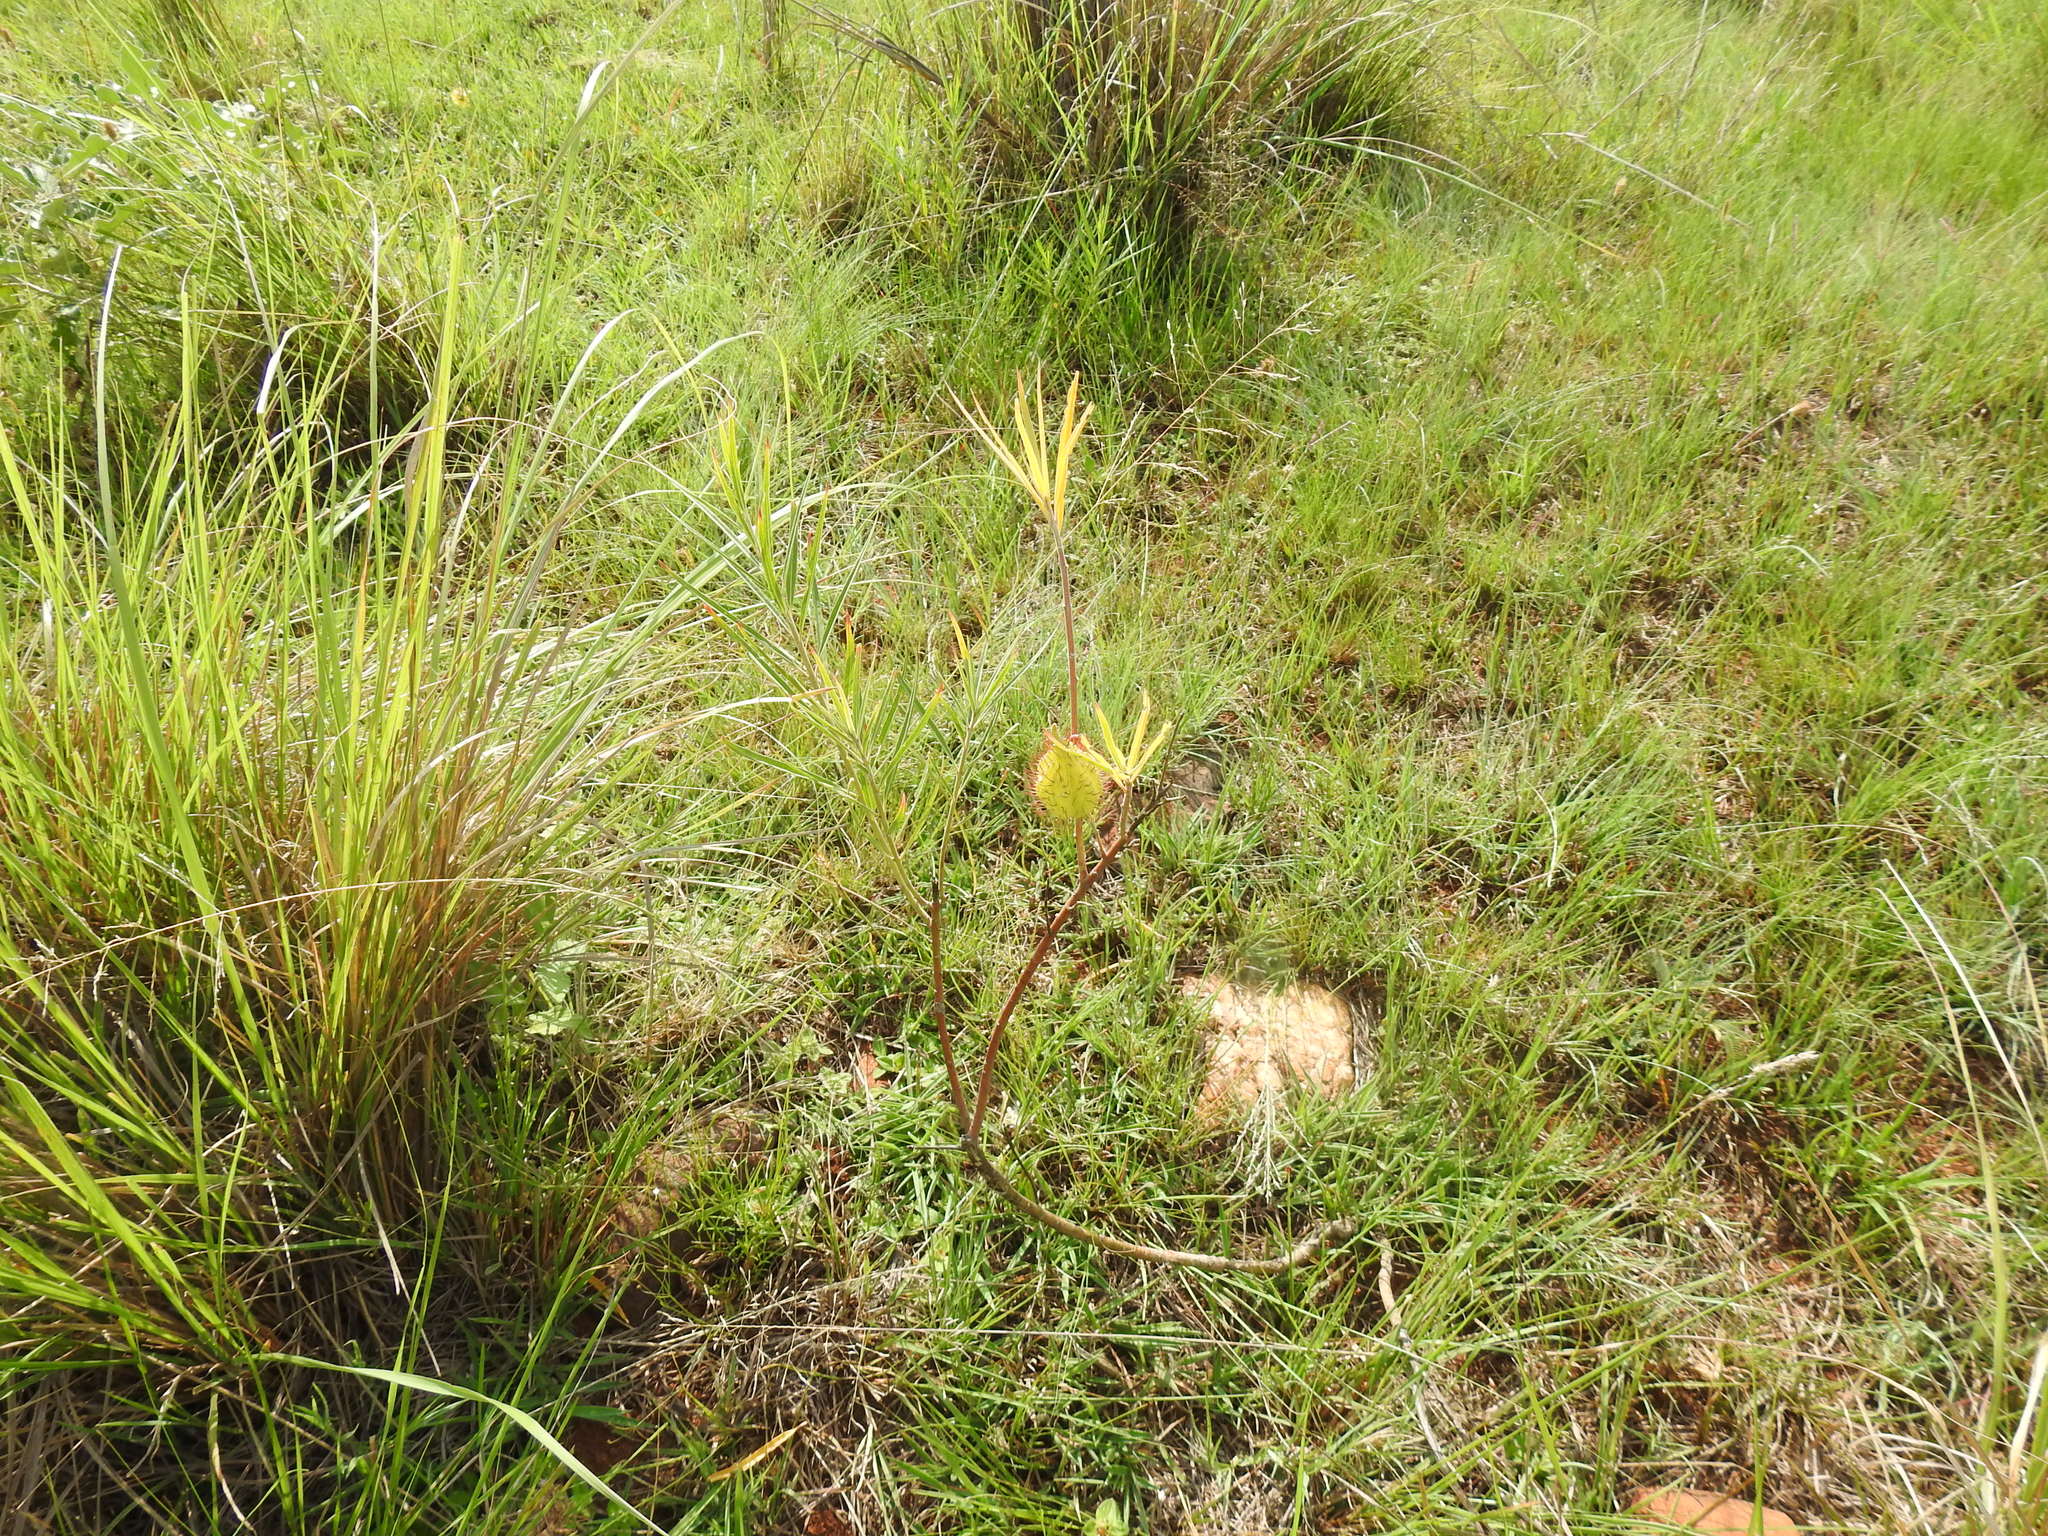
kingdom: Plantae
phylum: Tracheophyta
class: Magnoliopsida
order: Gentianales
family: Apocynaceae
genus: Gomphocarpus
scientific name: Gomphocarpus fruticosus
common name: Milkweed
